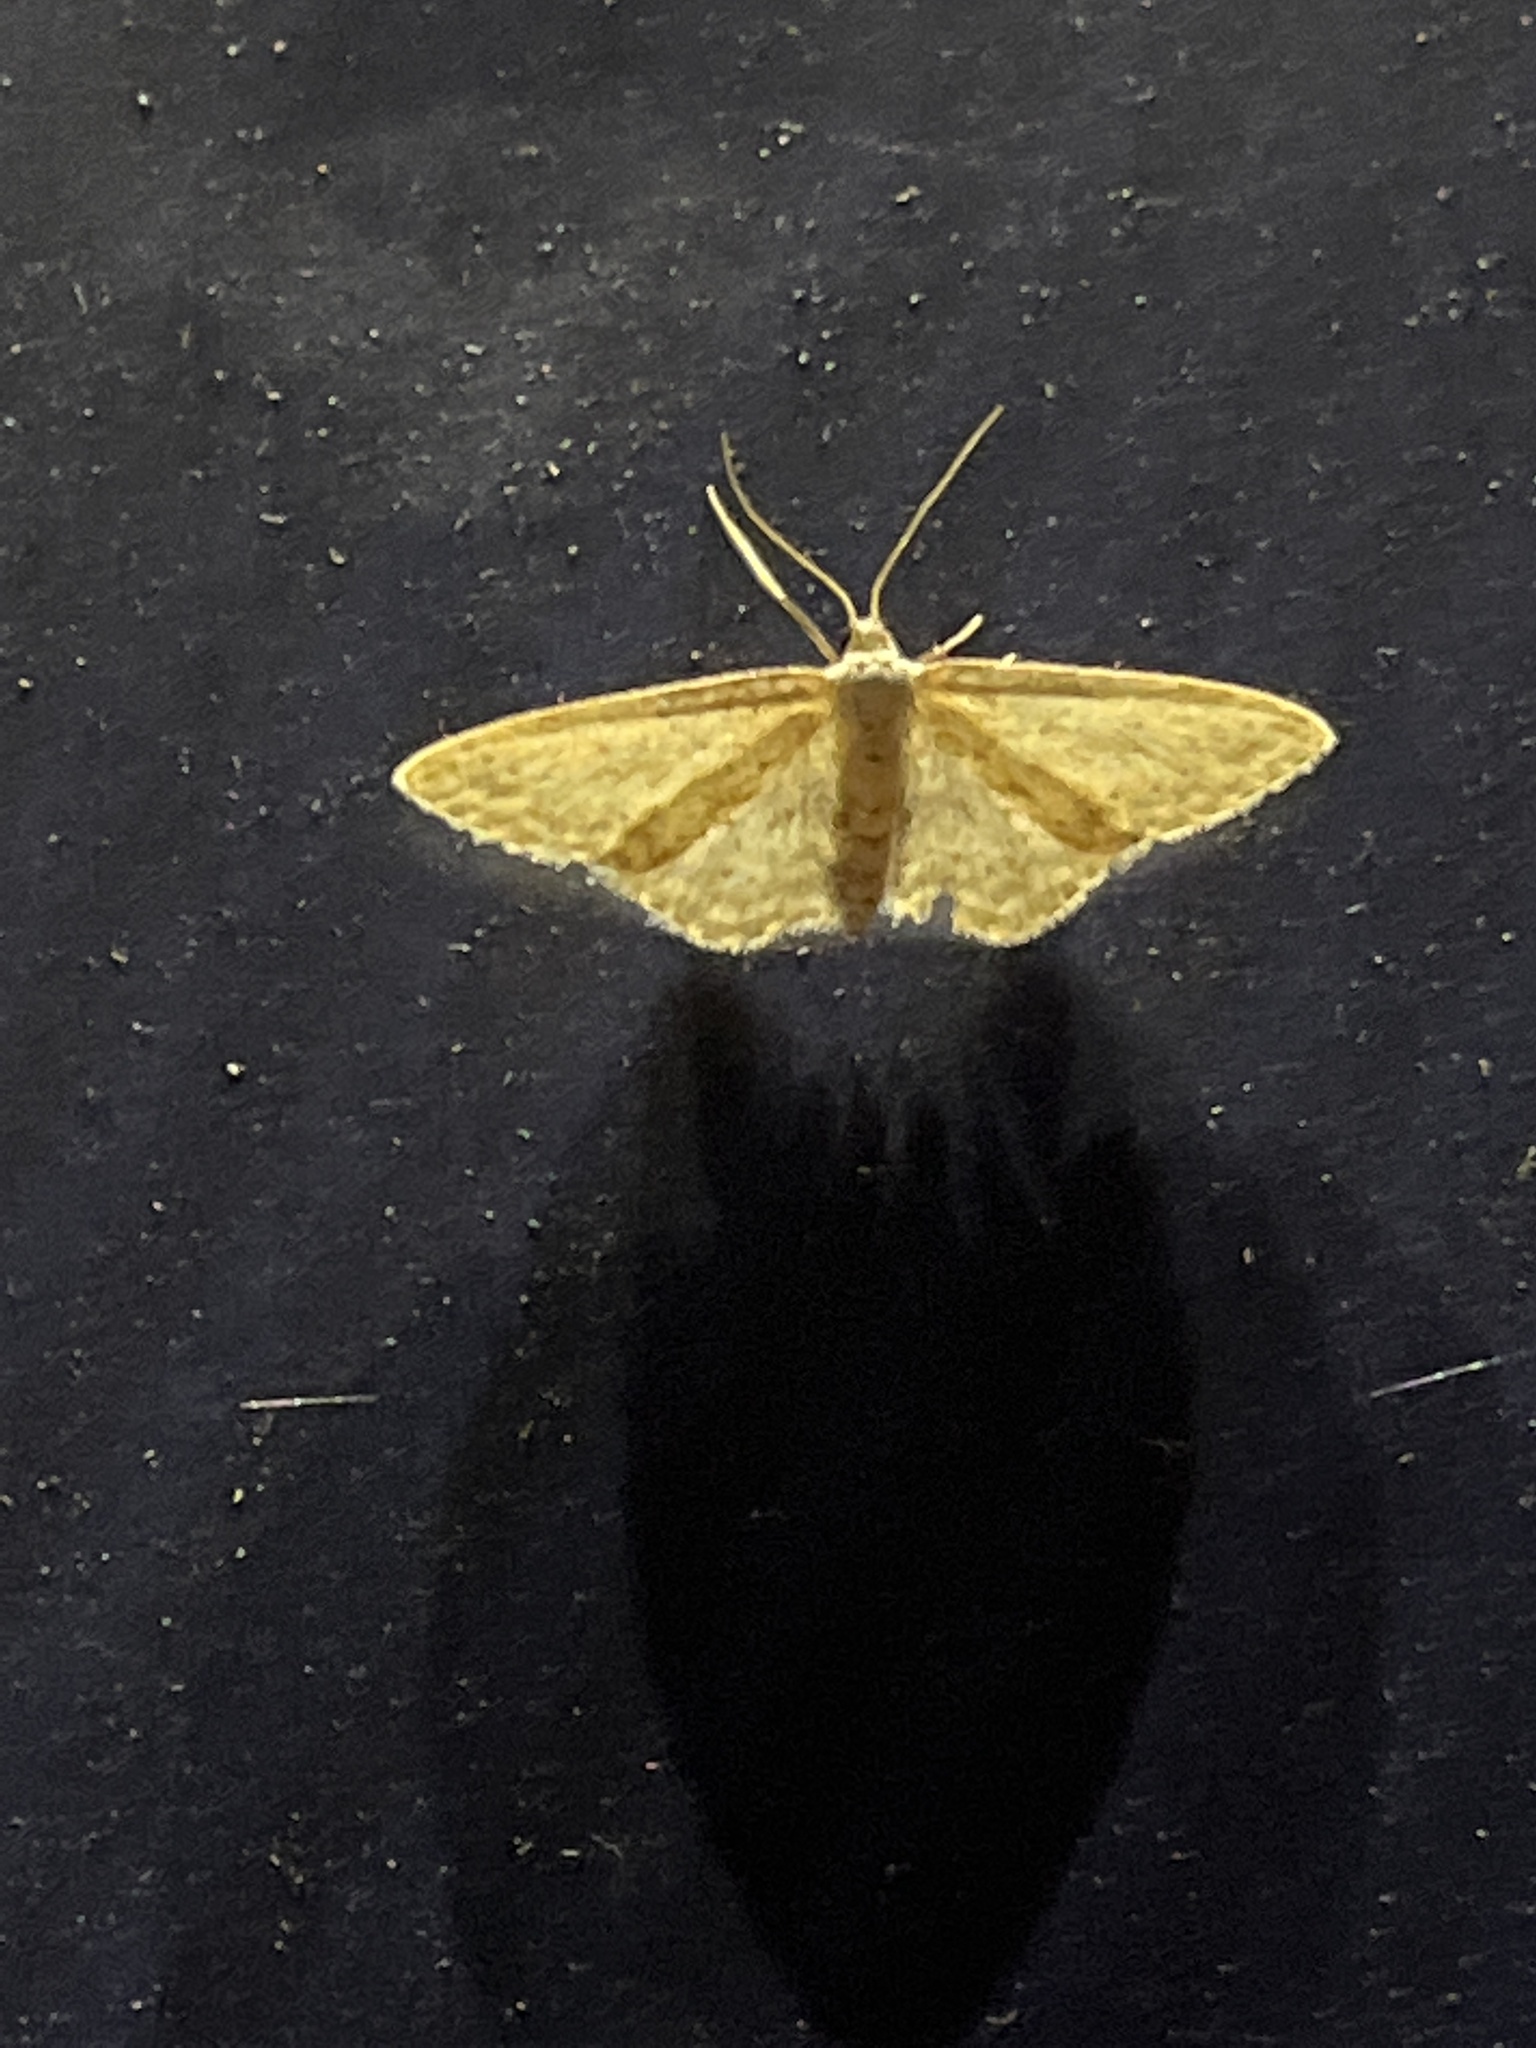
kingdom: Animalia
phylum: Arthropoda
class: Insecta
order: Lepidoptera
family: Geometridae
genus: Idaea
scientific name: Idaea seriata
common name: Small dusty wave
